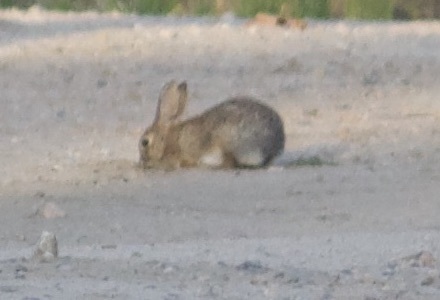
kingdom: Animalia
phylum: Chordata
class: Mammalia
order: Lagomorpha
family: Leporidae
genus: Sylvilagus
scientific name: Sylvilagus audubonii
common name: Desert cottontail
